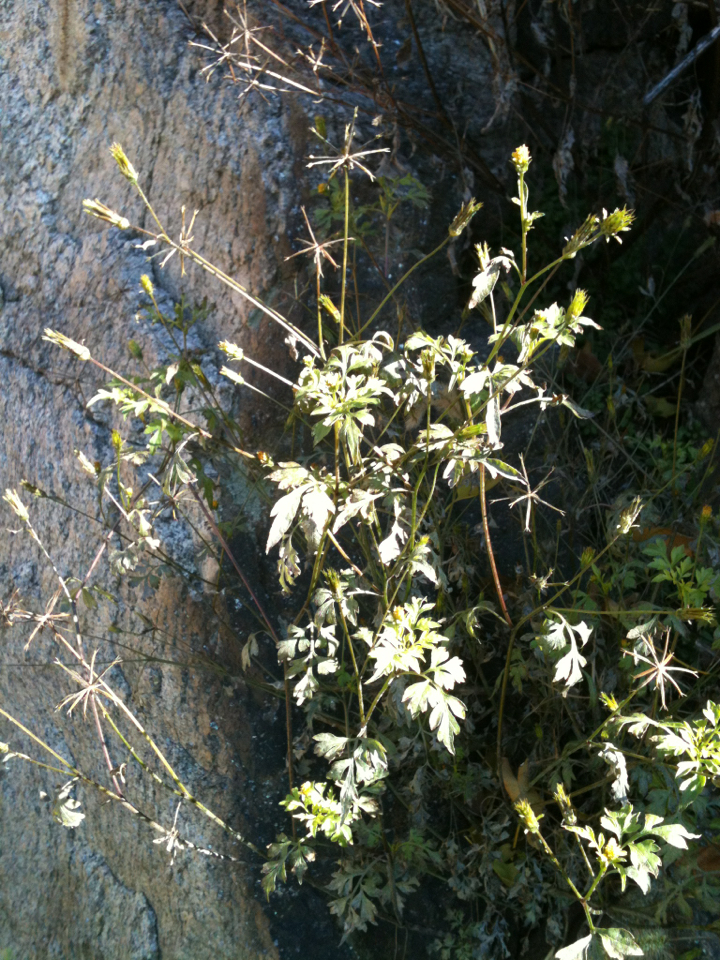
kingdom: Plantae
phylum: Tracheophyta
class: Magnoliopsida
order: Asterales
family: Asteraceae
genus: Bidens
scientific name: Bidens bipinnata
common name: Spanish-needles
